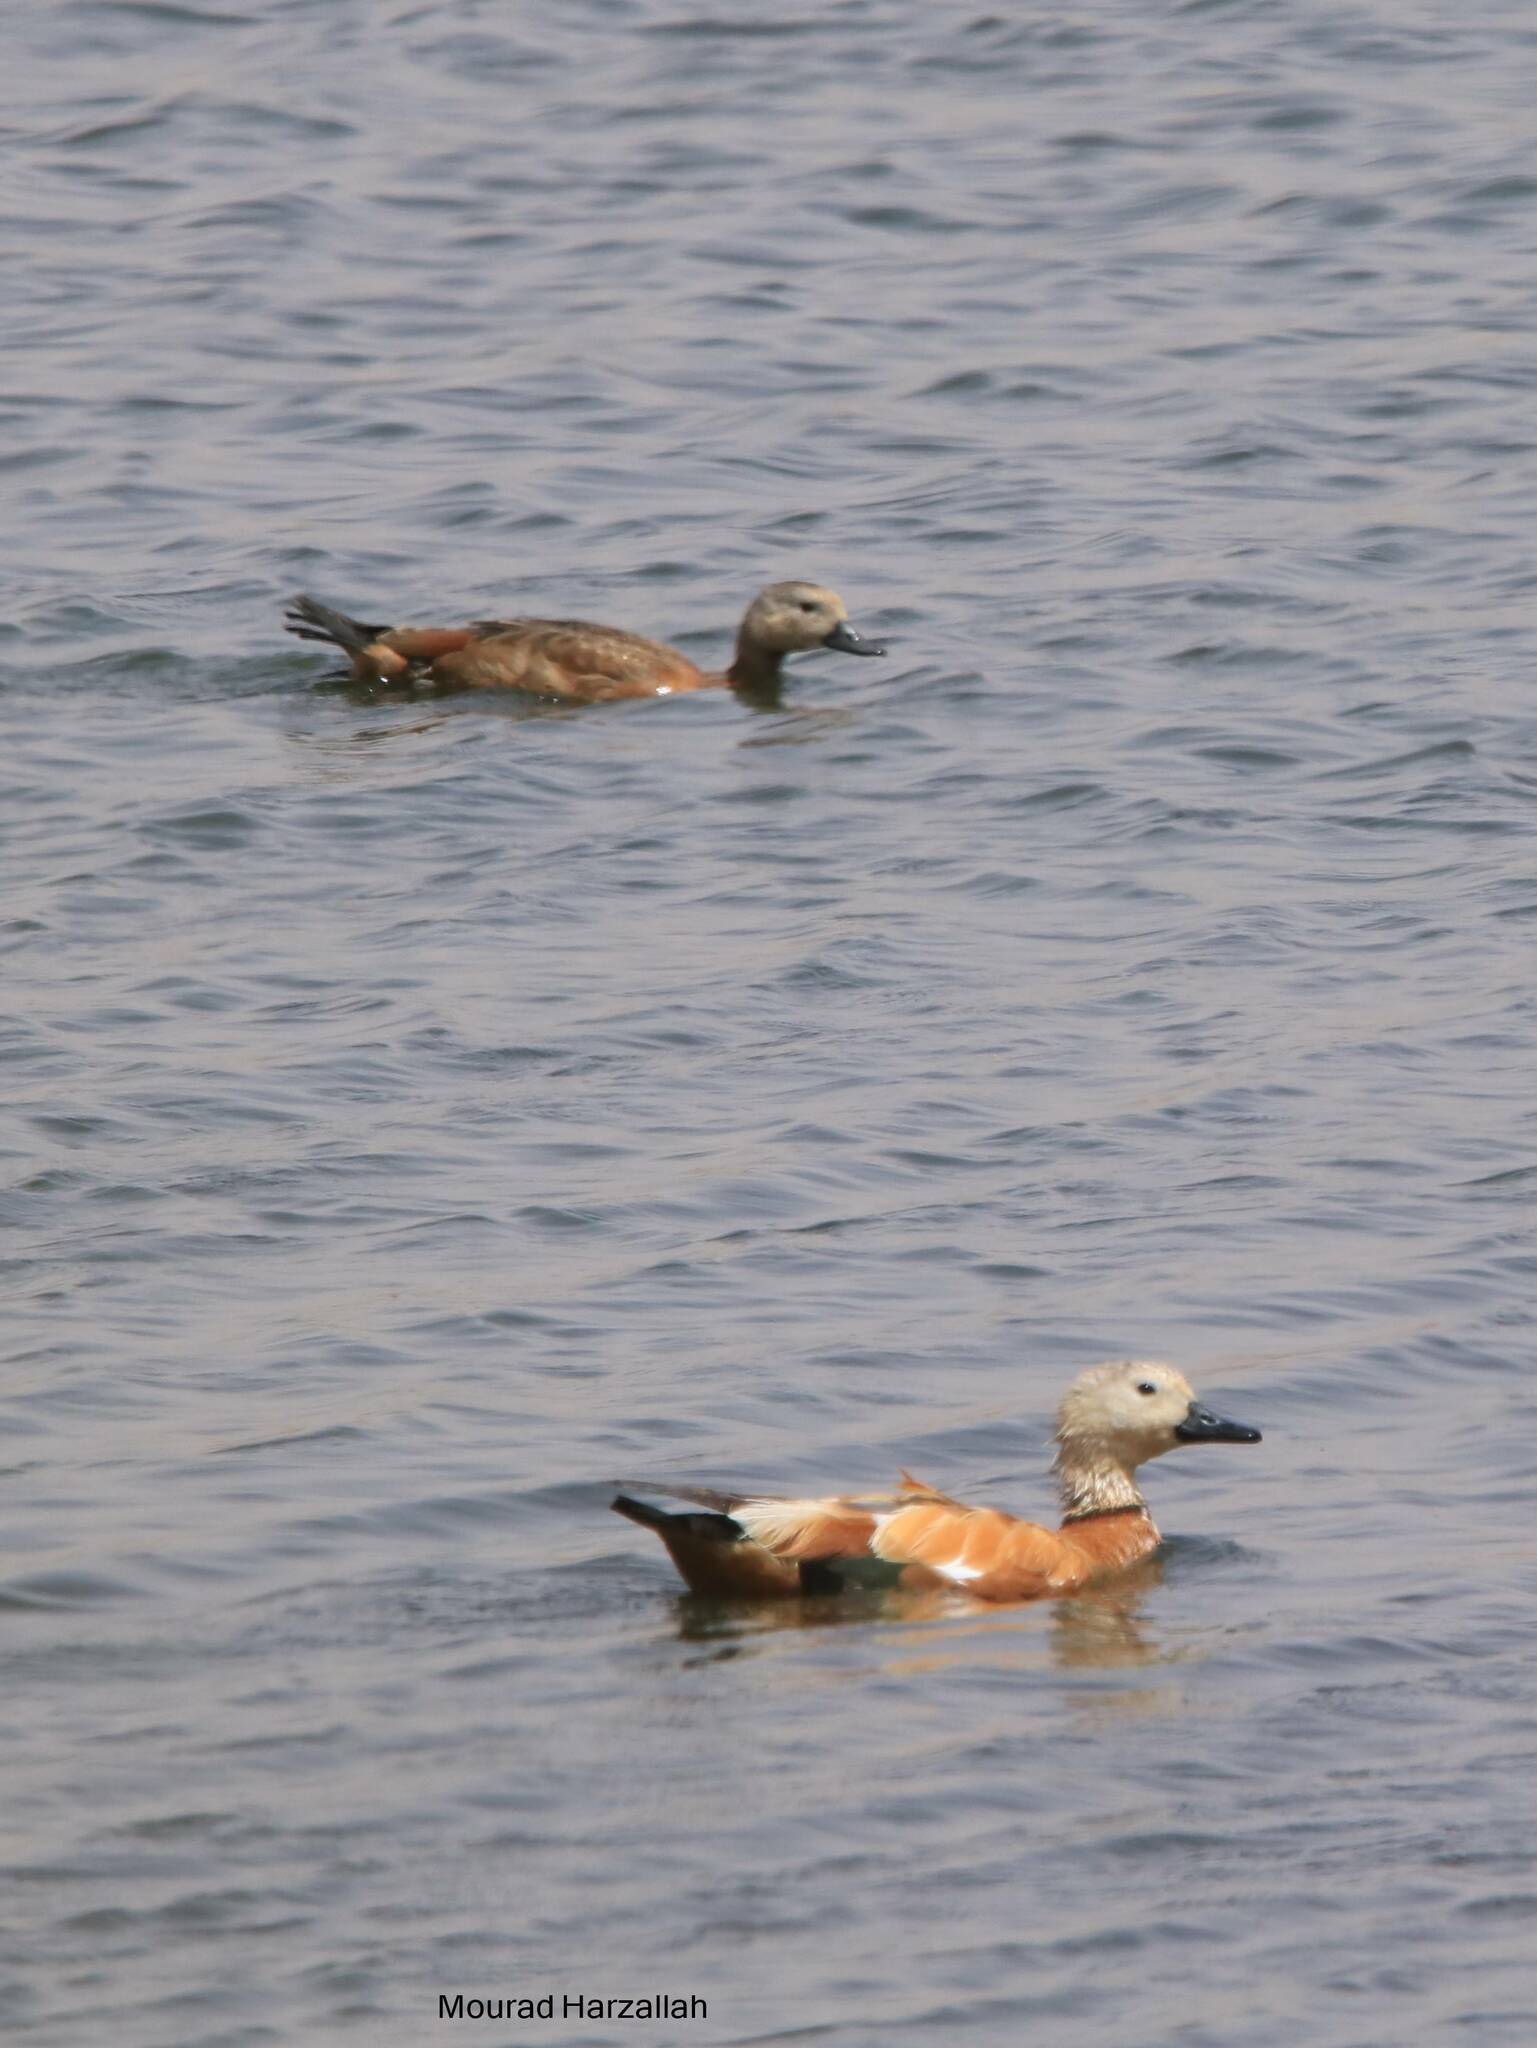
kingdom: Animalia
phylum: Chordata
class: Aves
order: Anseriformes
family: Anatidae
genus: Tadorna
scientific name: Tadorna ferruginea
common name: Ruddy shelduck
